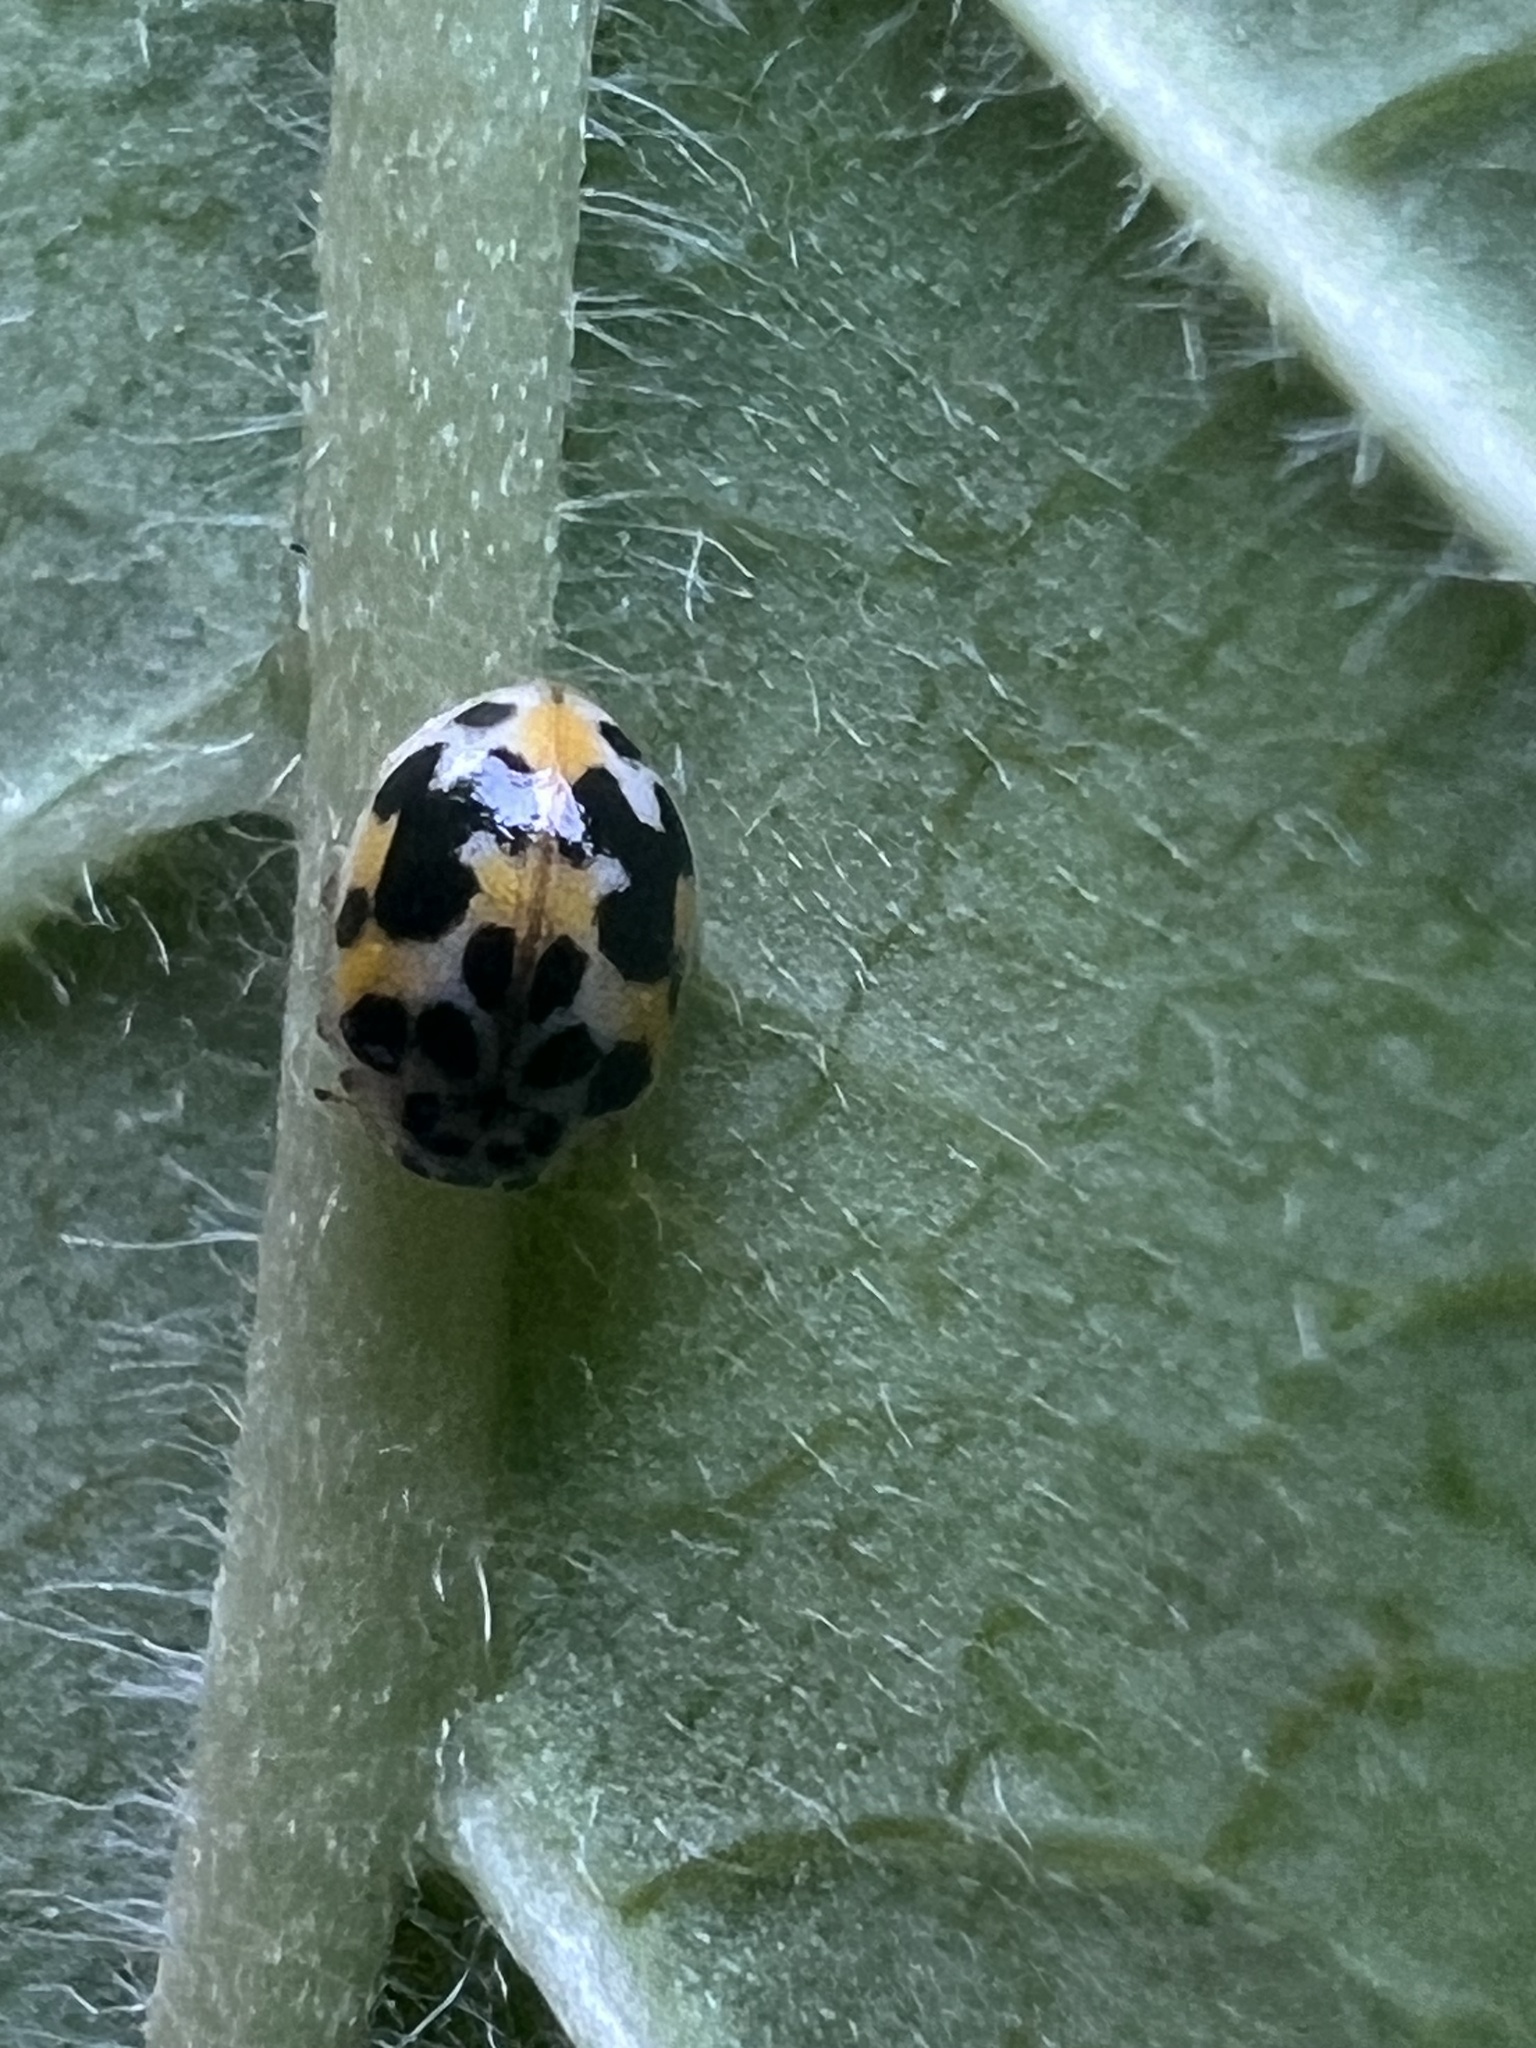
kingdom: Animalia
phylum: Arthropoda
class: Insecta
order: Coleoptera
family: Coccinellidae
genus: Psyllobora
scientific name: Psyllobora vigintimaculata
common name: Ladybird beetle
